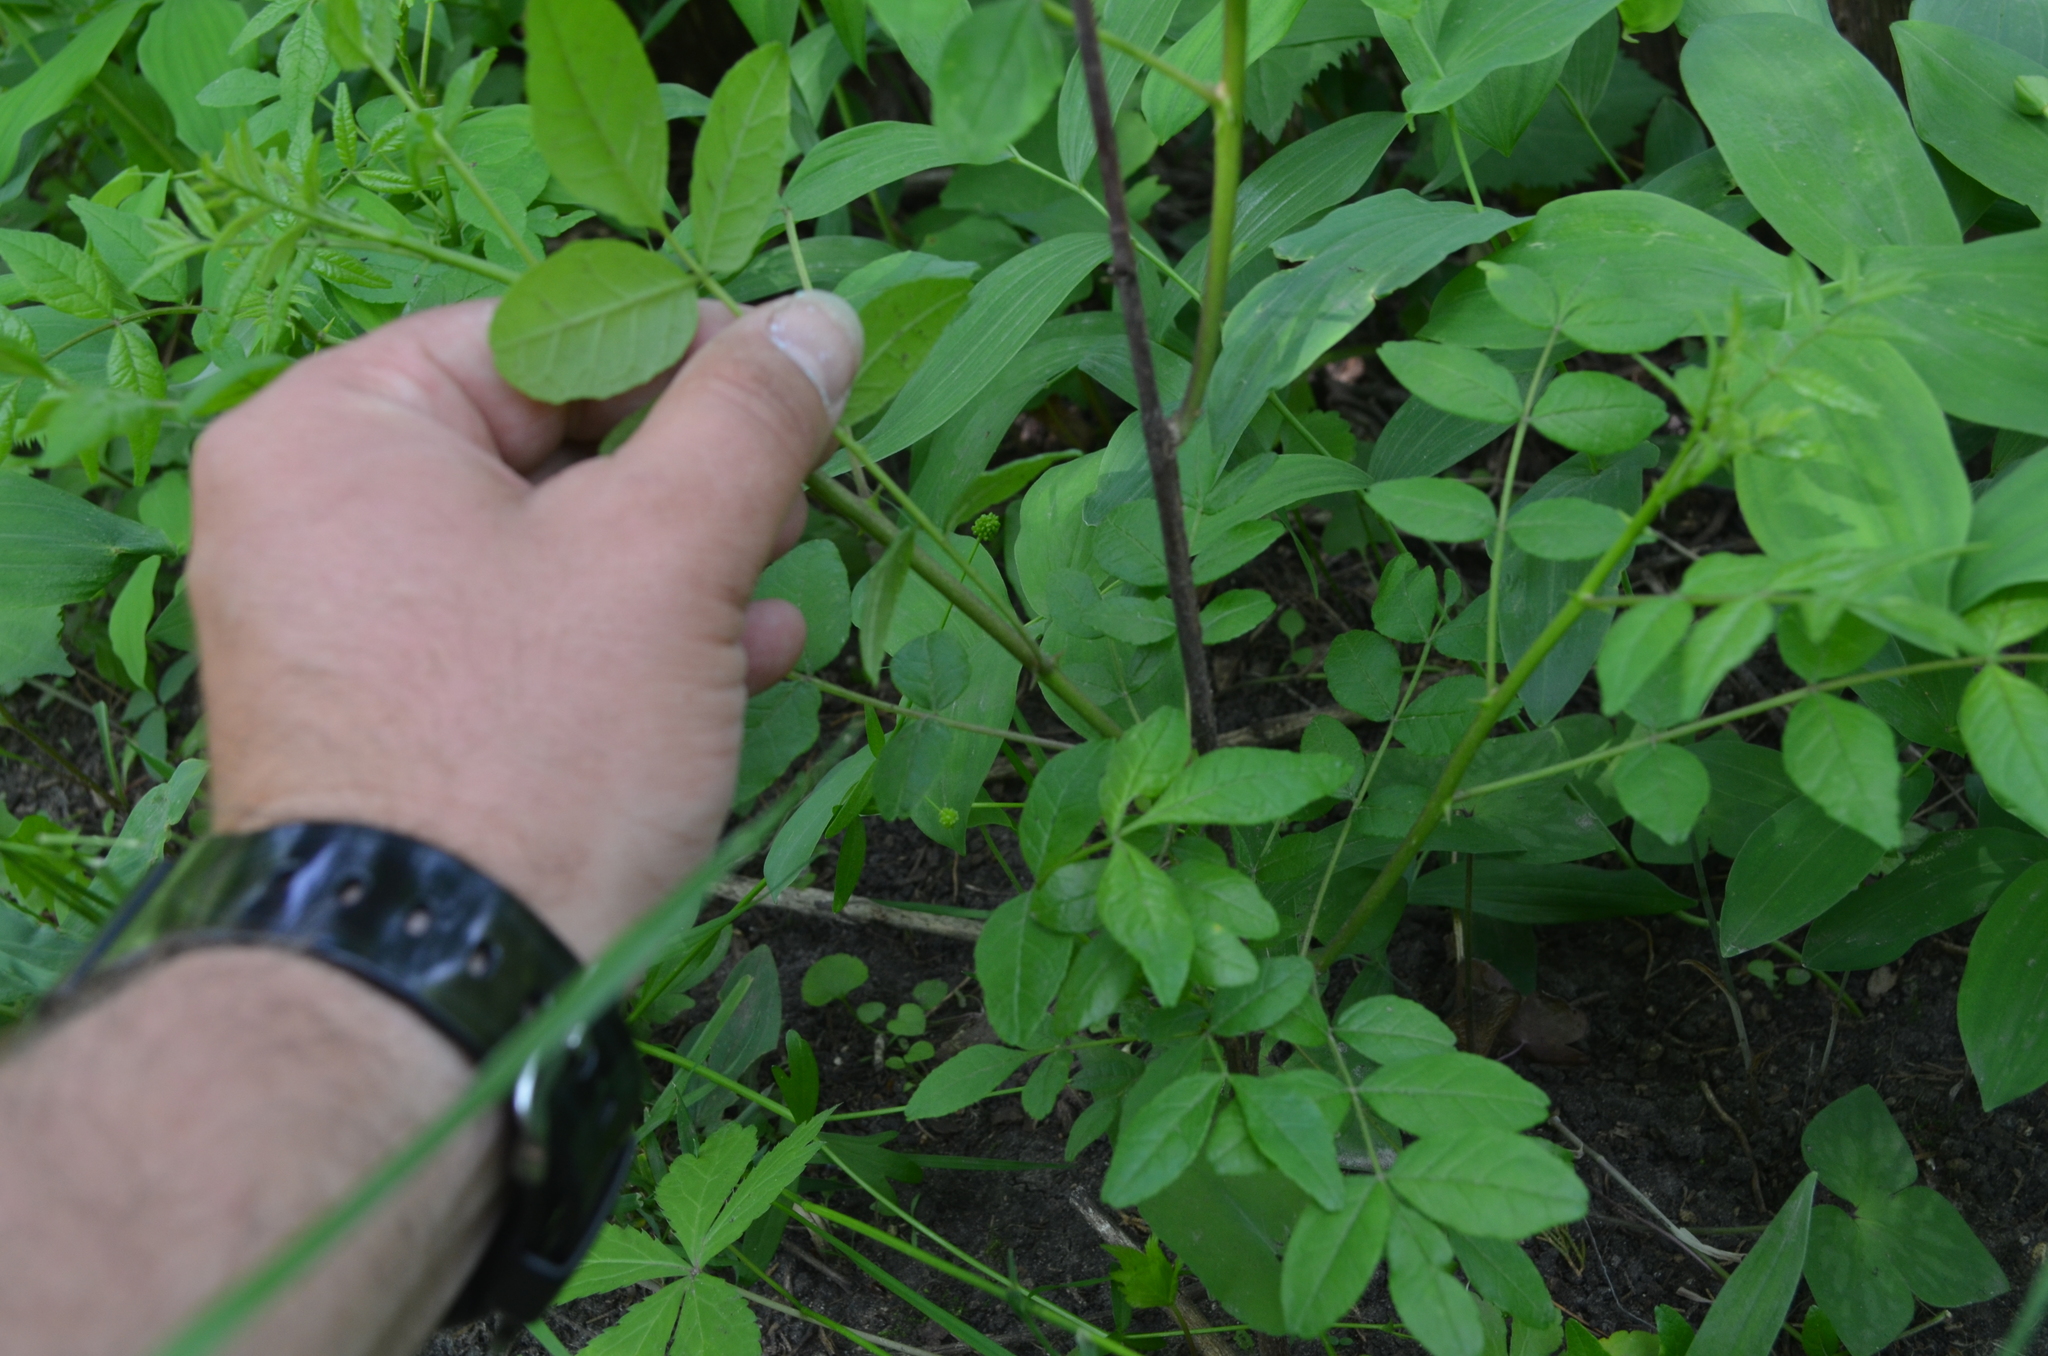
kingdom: Plantae
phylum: Tracheophyta
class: Magnoliopsida
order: Sapindales
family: Rutaceae
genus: Zanthoxylum
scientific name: Zanthoxylum americanum
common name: Northern prickly-ash
